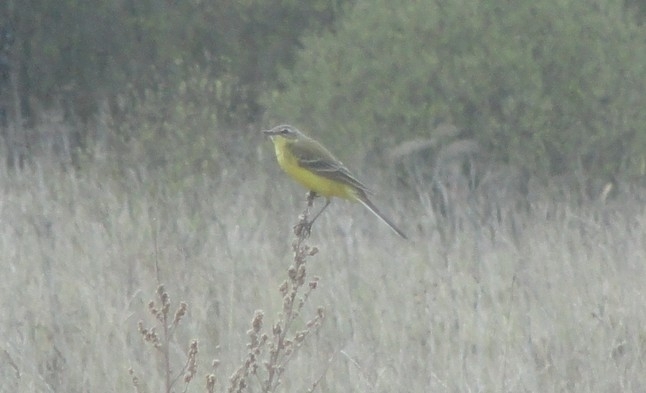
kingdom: Animalia
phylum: Chordata
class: Aves
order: Passeriformes
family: Motacillidae
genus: Motacilla
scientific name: Motacilla flava
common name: Western yellow wagtail
